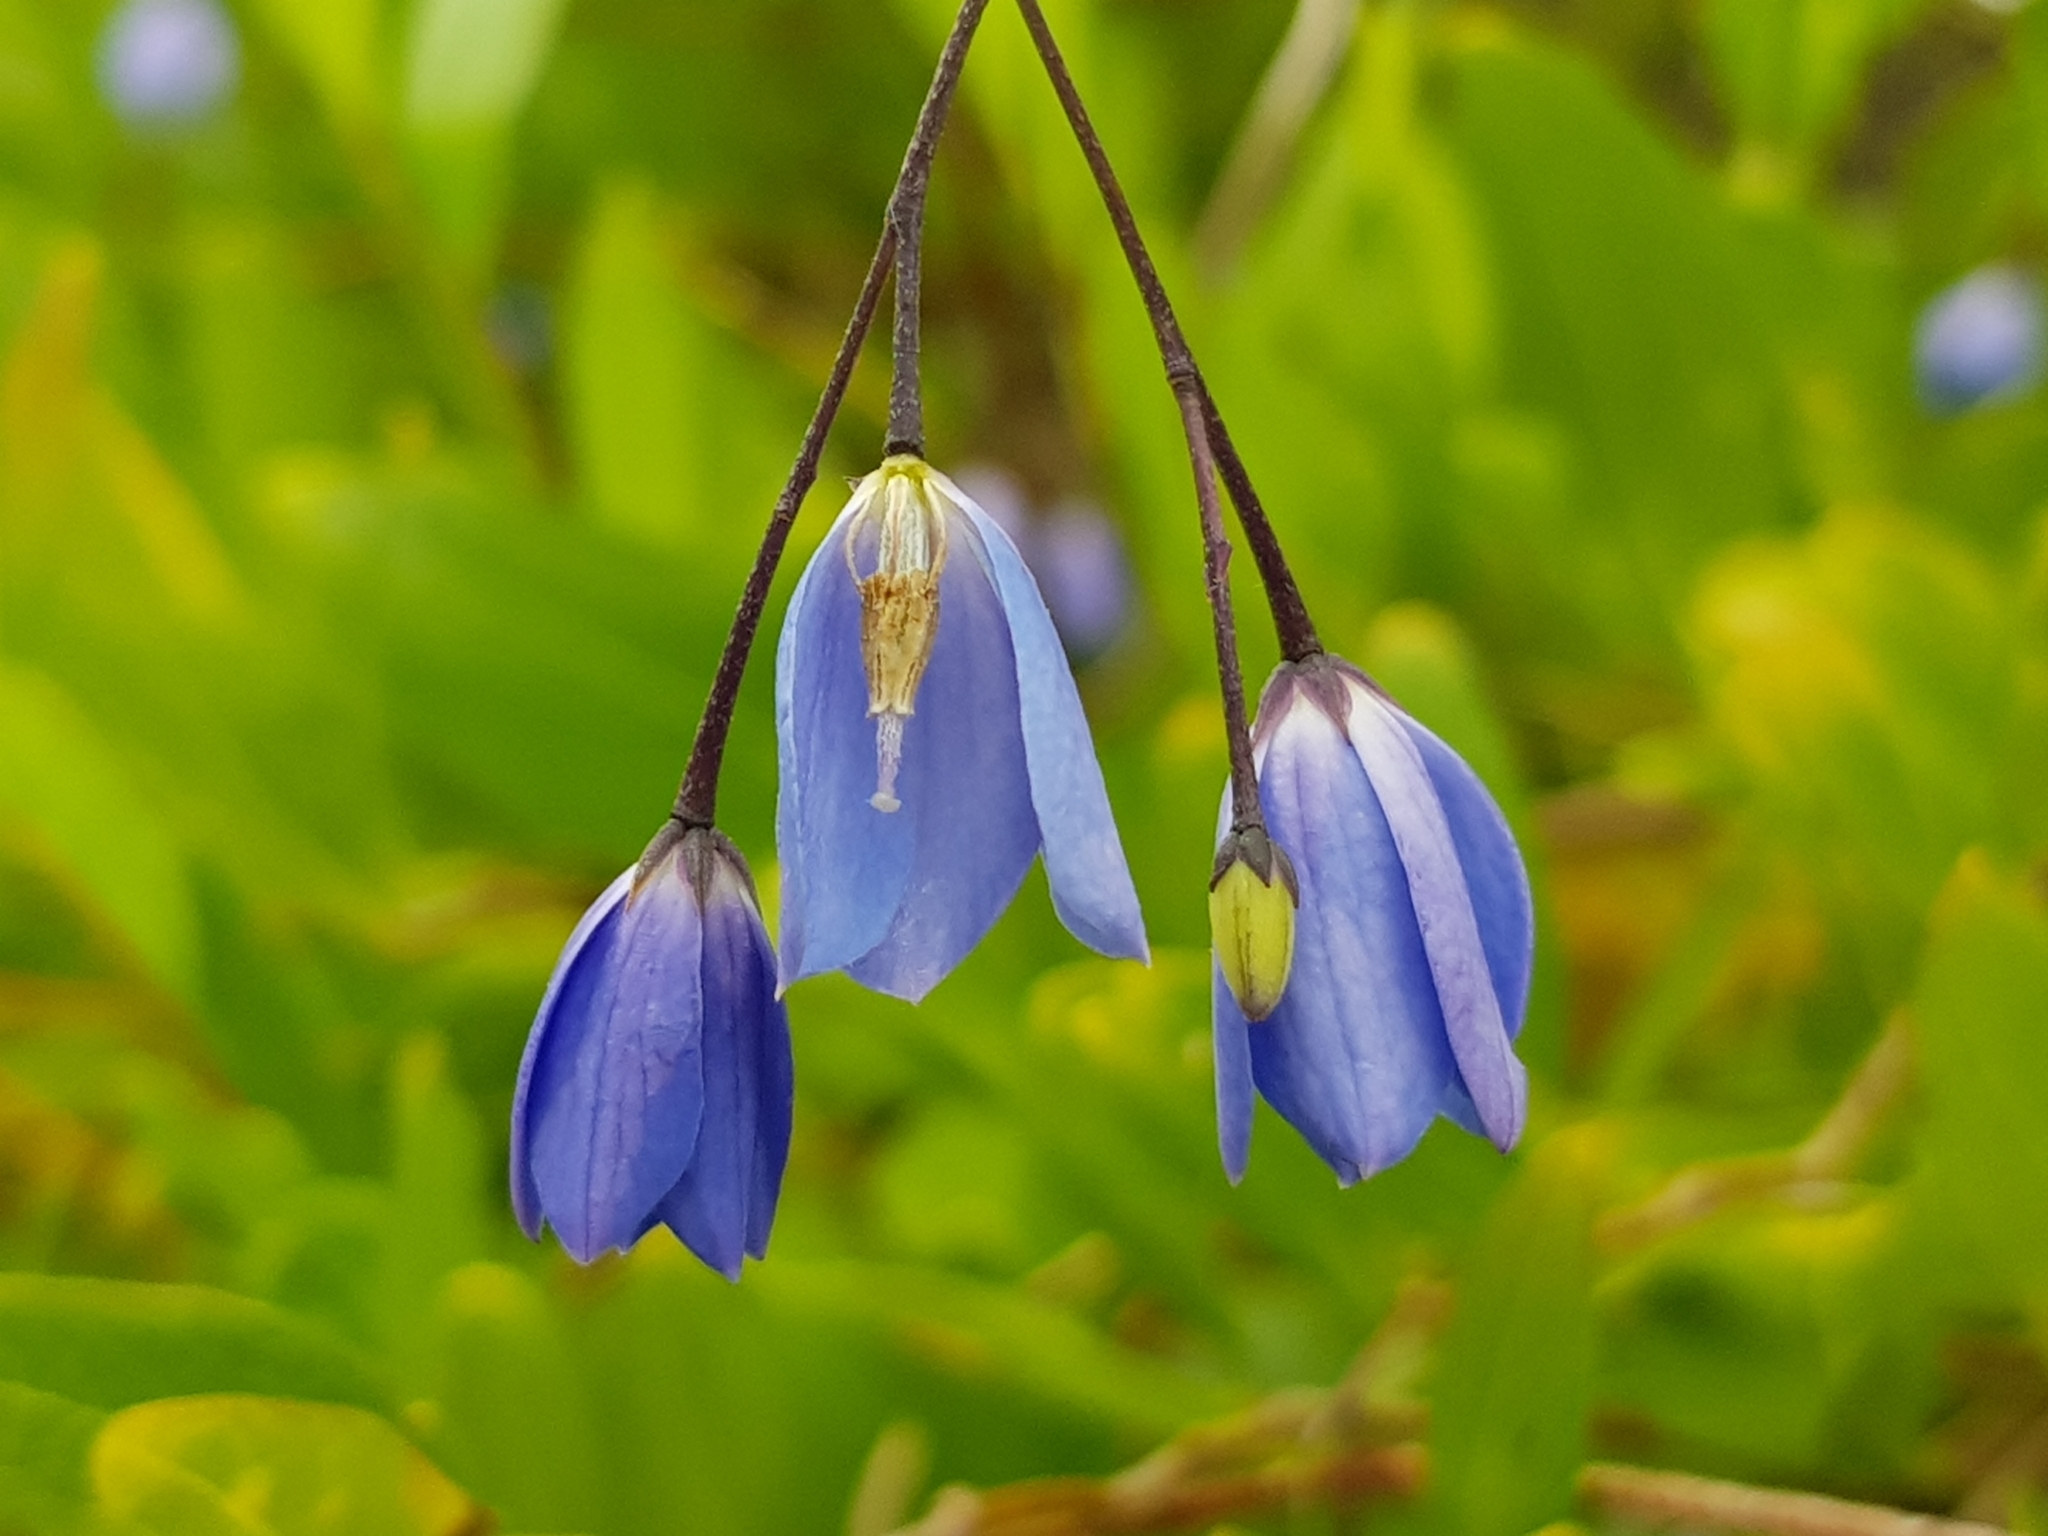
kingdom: Plantae
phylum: Tracheophyta
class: Magnoliopsida
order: Apiales
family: Pittosporaceae
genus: Billardiera
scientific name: Billardiera fusiformis
